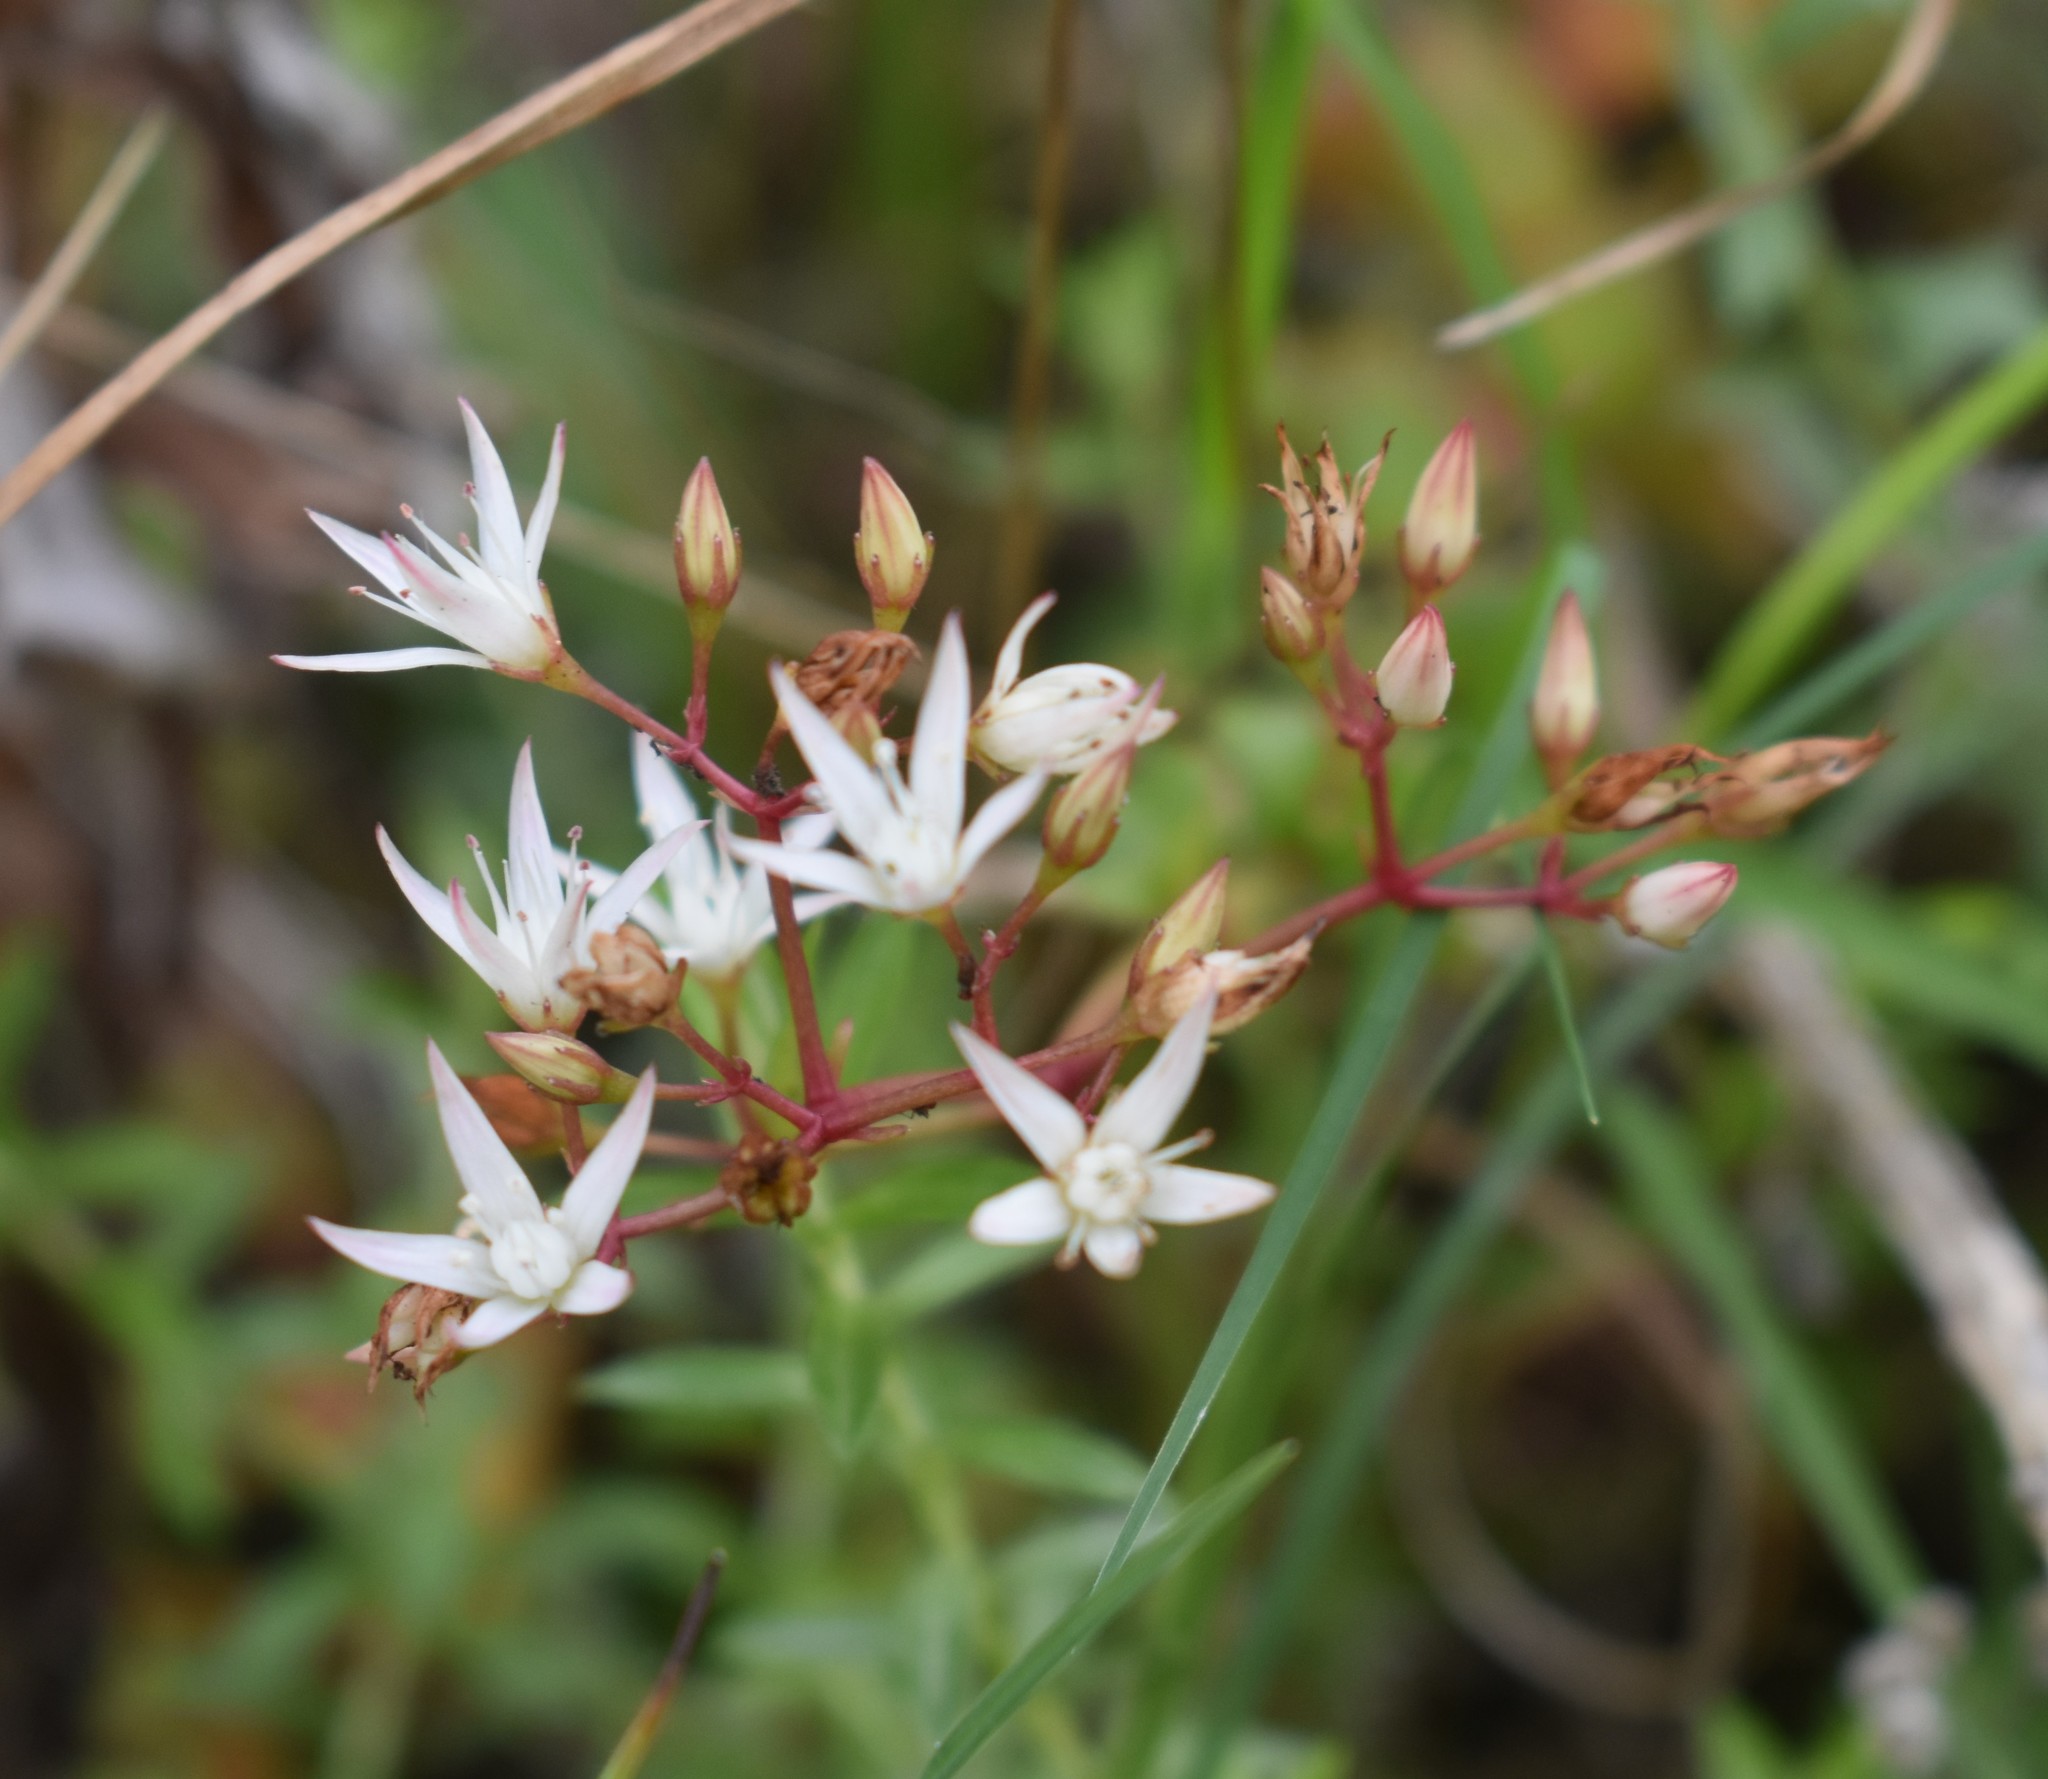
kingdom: Plantae
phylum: Tracheophyta
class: Magnoliopsida
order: Saxifragales
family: Crassulaceae
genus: Crassula
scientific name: Crassula sarmentosa
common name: Jade-tree
